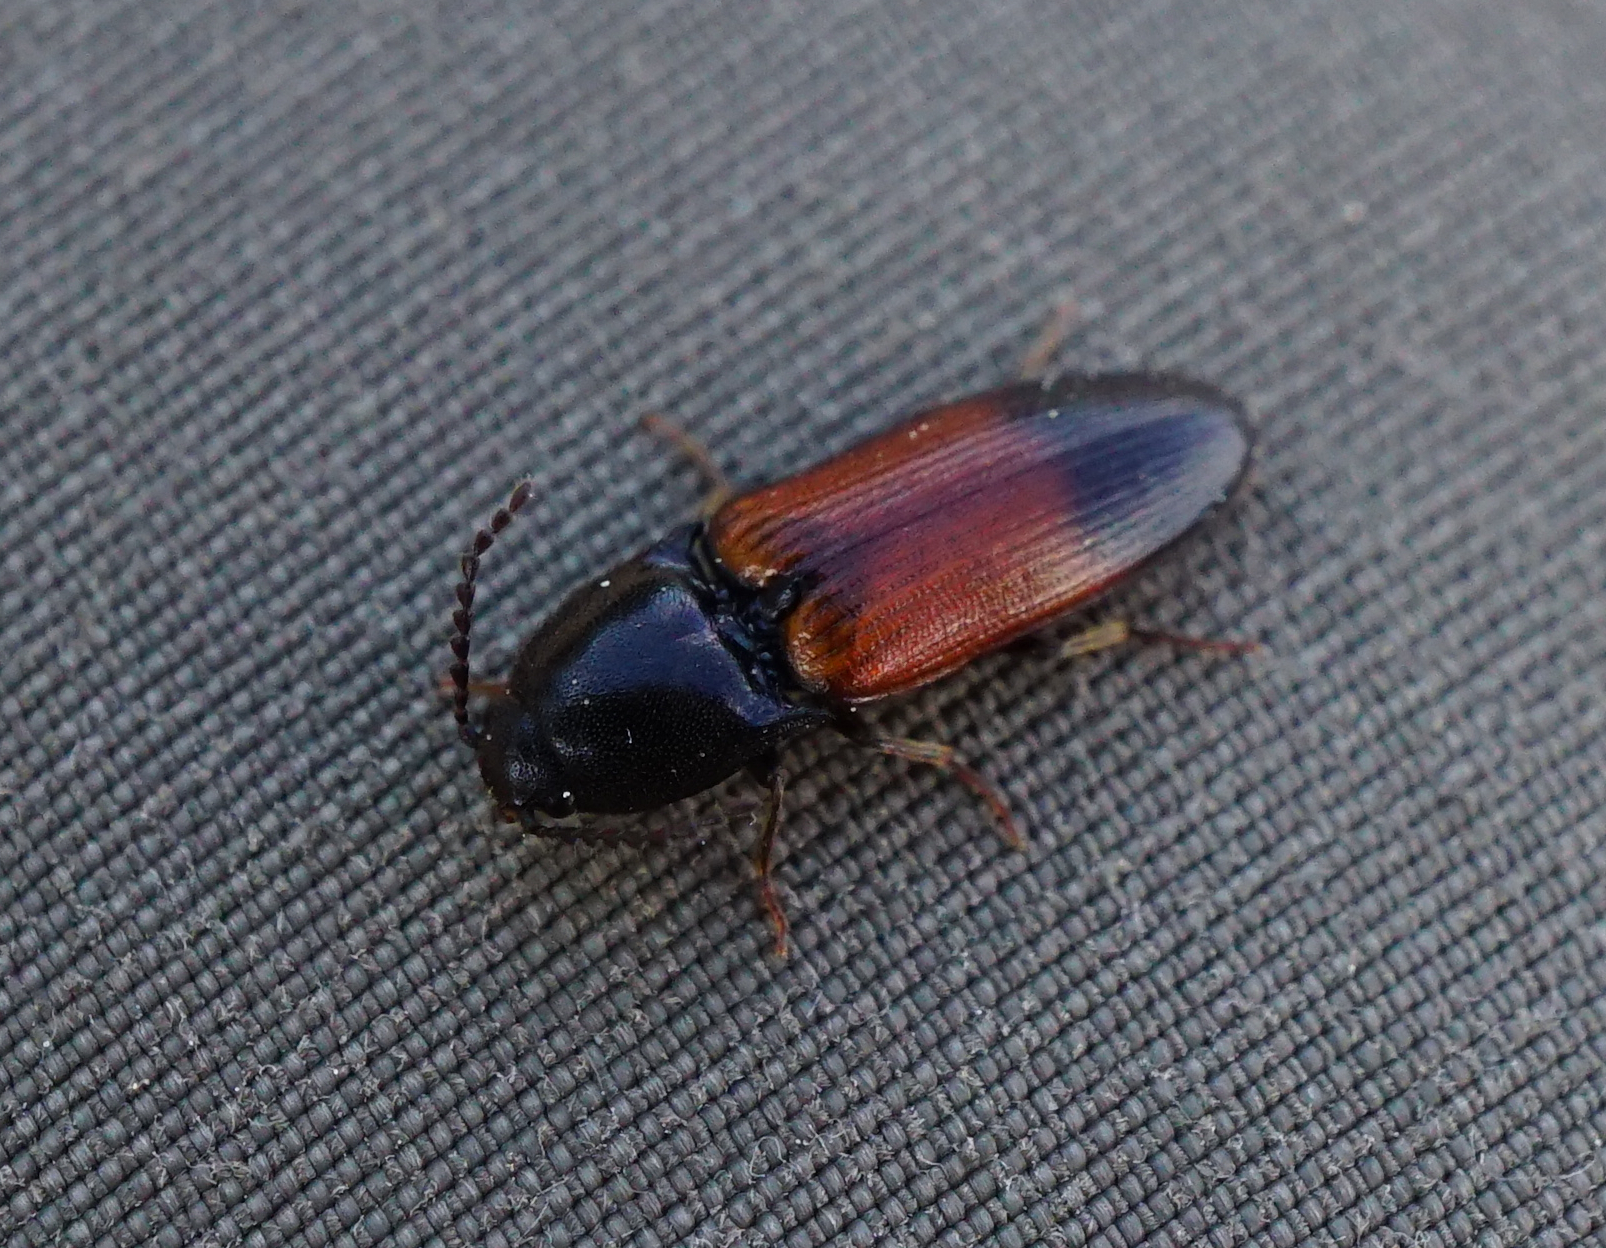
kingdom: Animalia
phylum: Arthropoda
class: Insecta
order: Coleoptera
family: Elateridae
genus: Ampedus
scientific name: Ampedus balteatus
